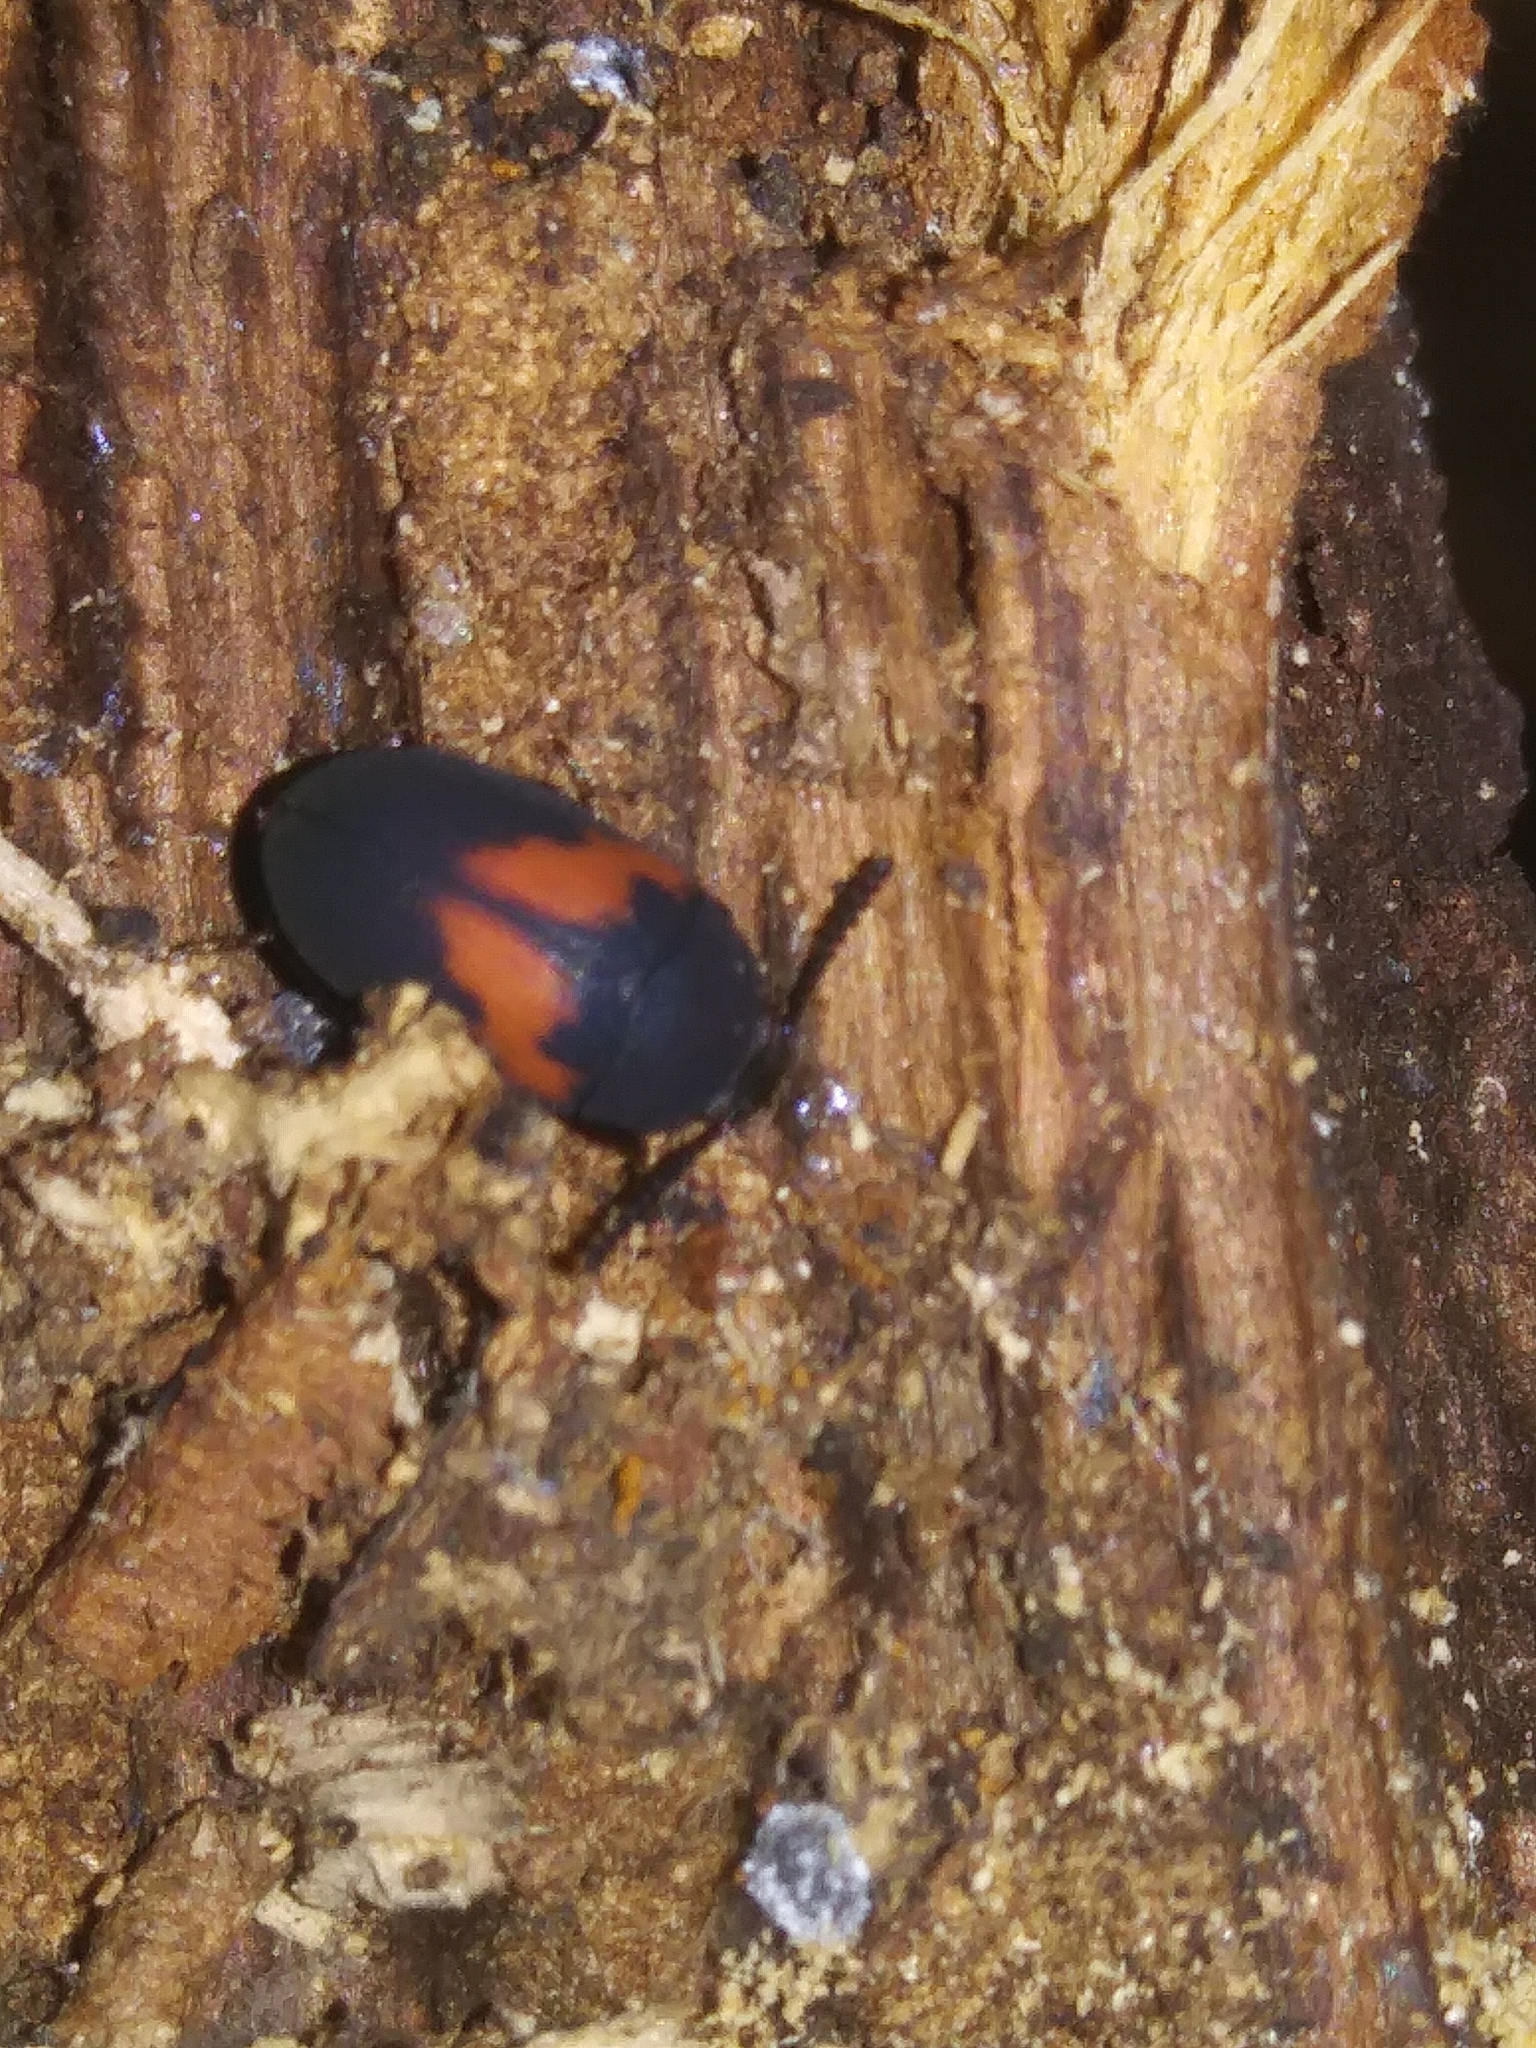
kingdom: Animalia
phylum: Arthropoda
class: Insecta
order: Coleoptera
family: Tenebrionidae
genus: Platydema
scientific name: Platydema elliptica
